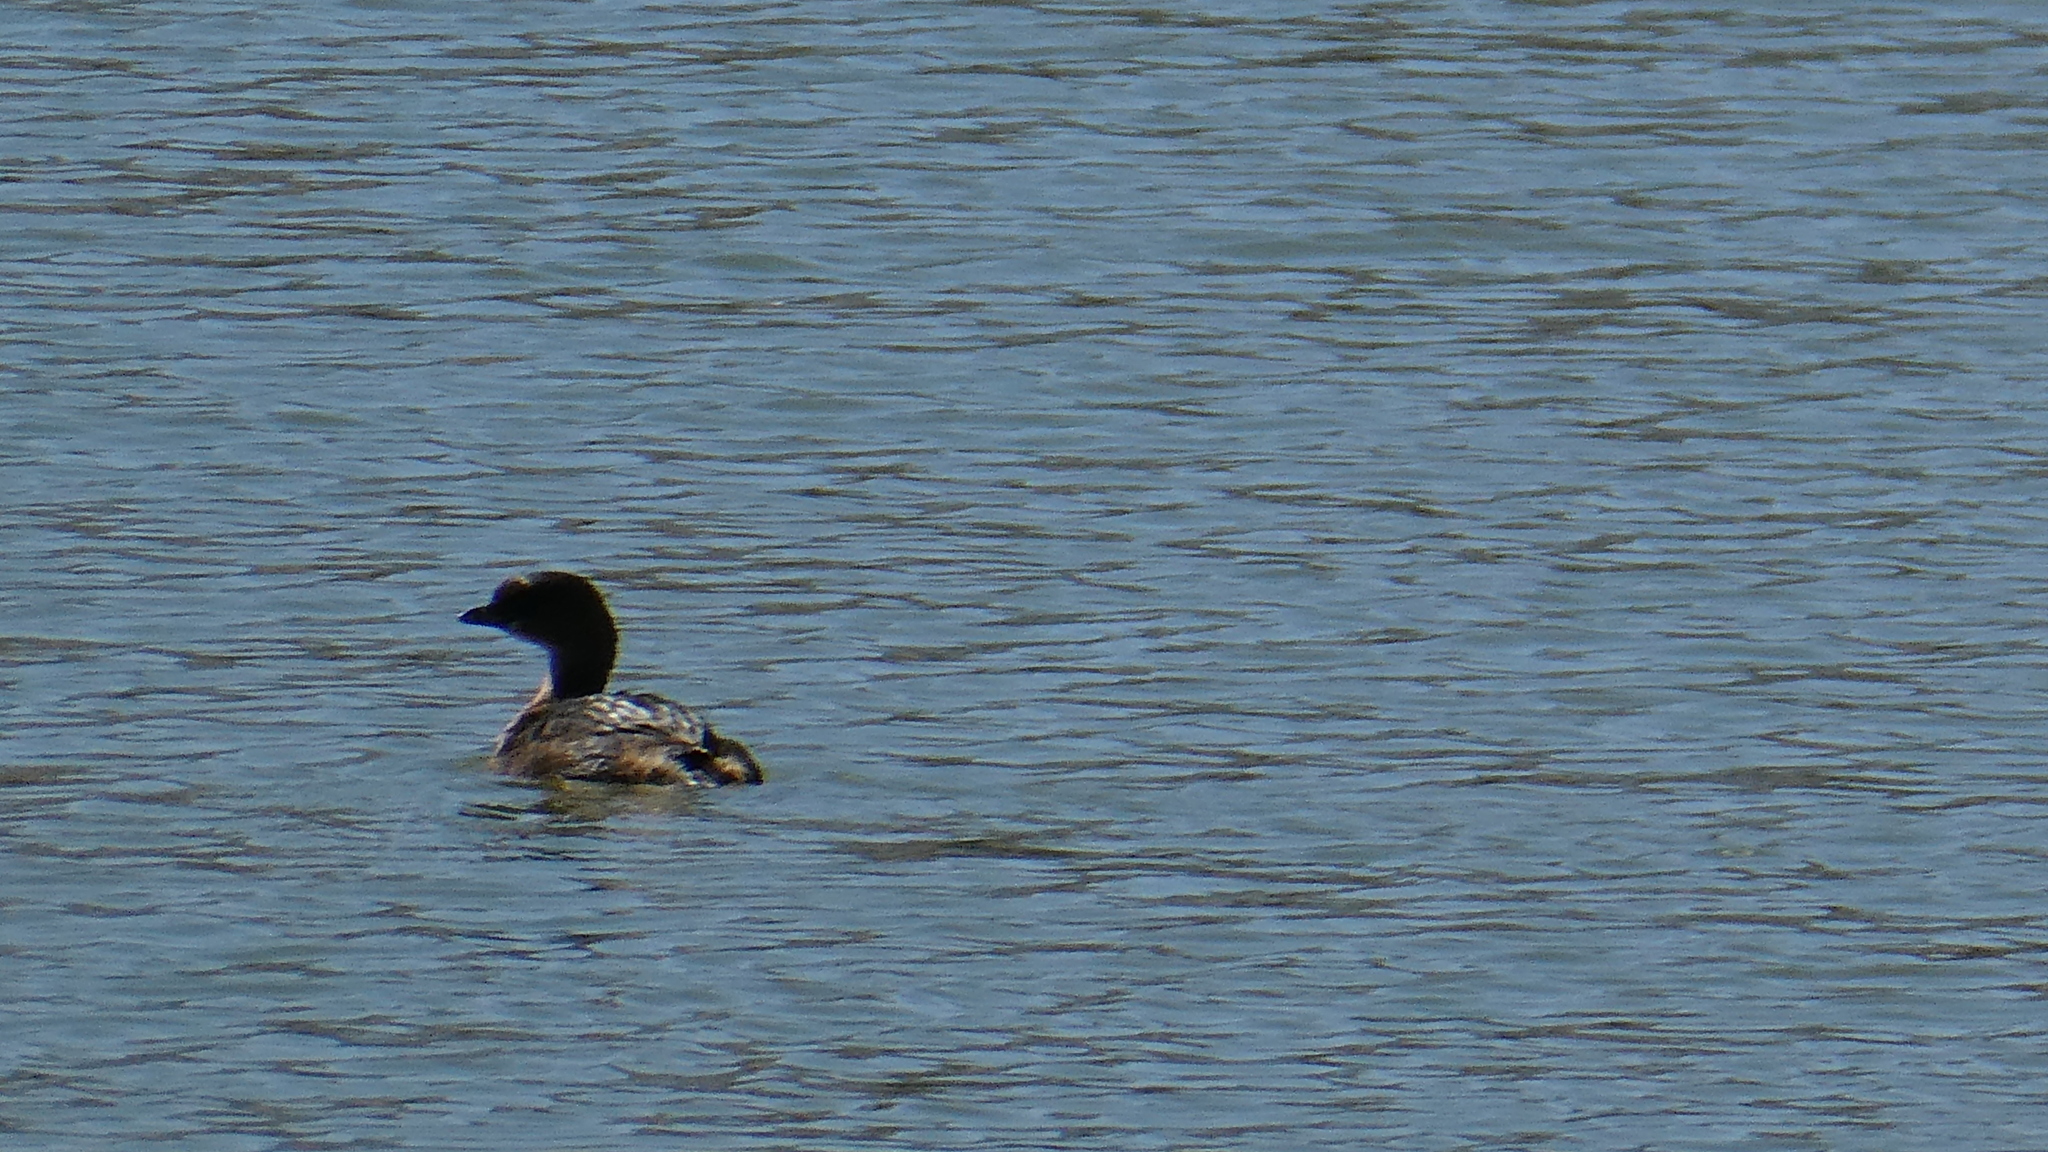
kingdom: Animalia
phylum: Chordata
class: Aves
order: Podicipediformes
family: Podicipedidae
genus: Podilymbus
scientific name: Podilymbus podiceps
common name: Pied-billed grebe
